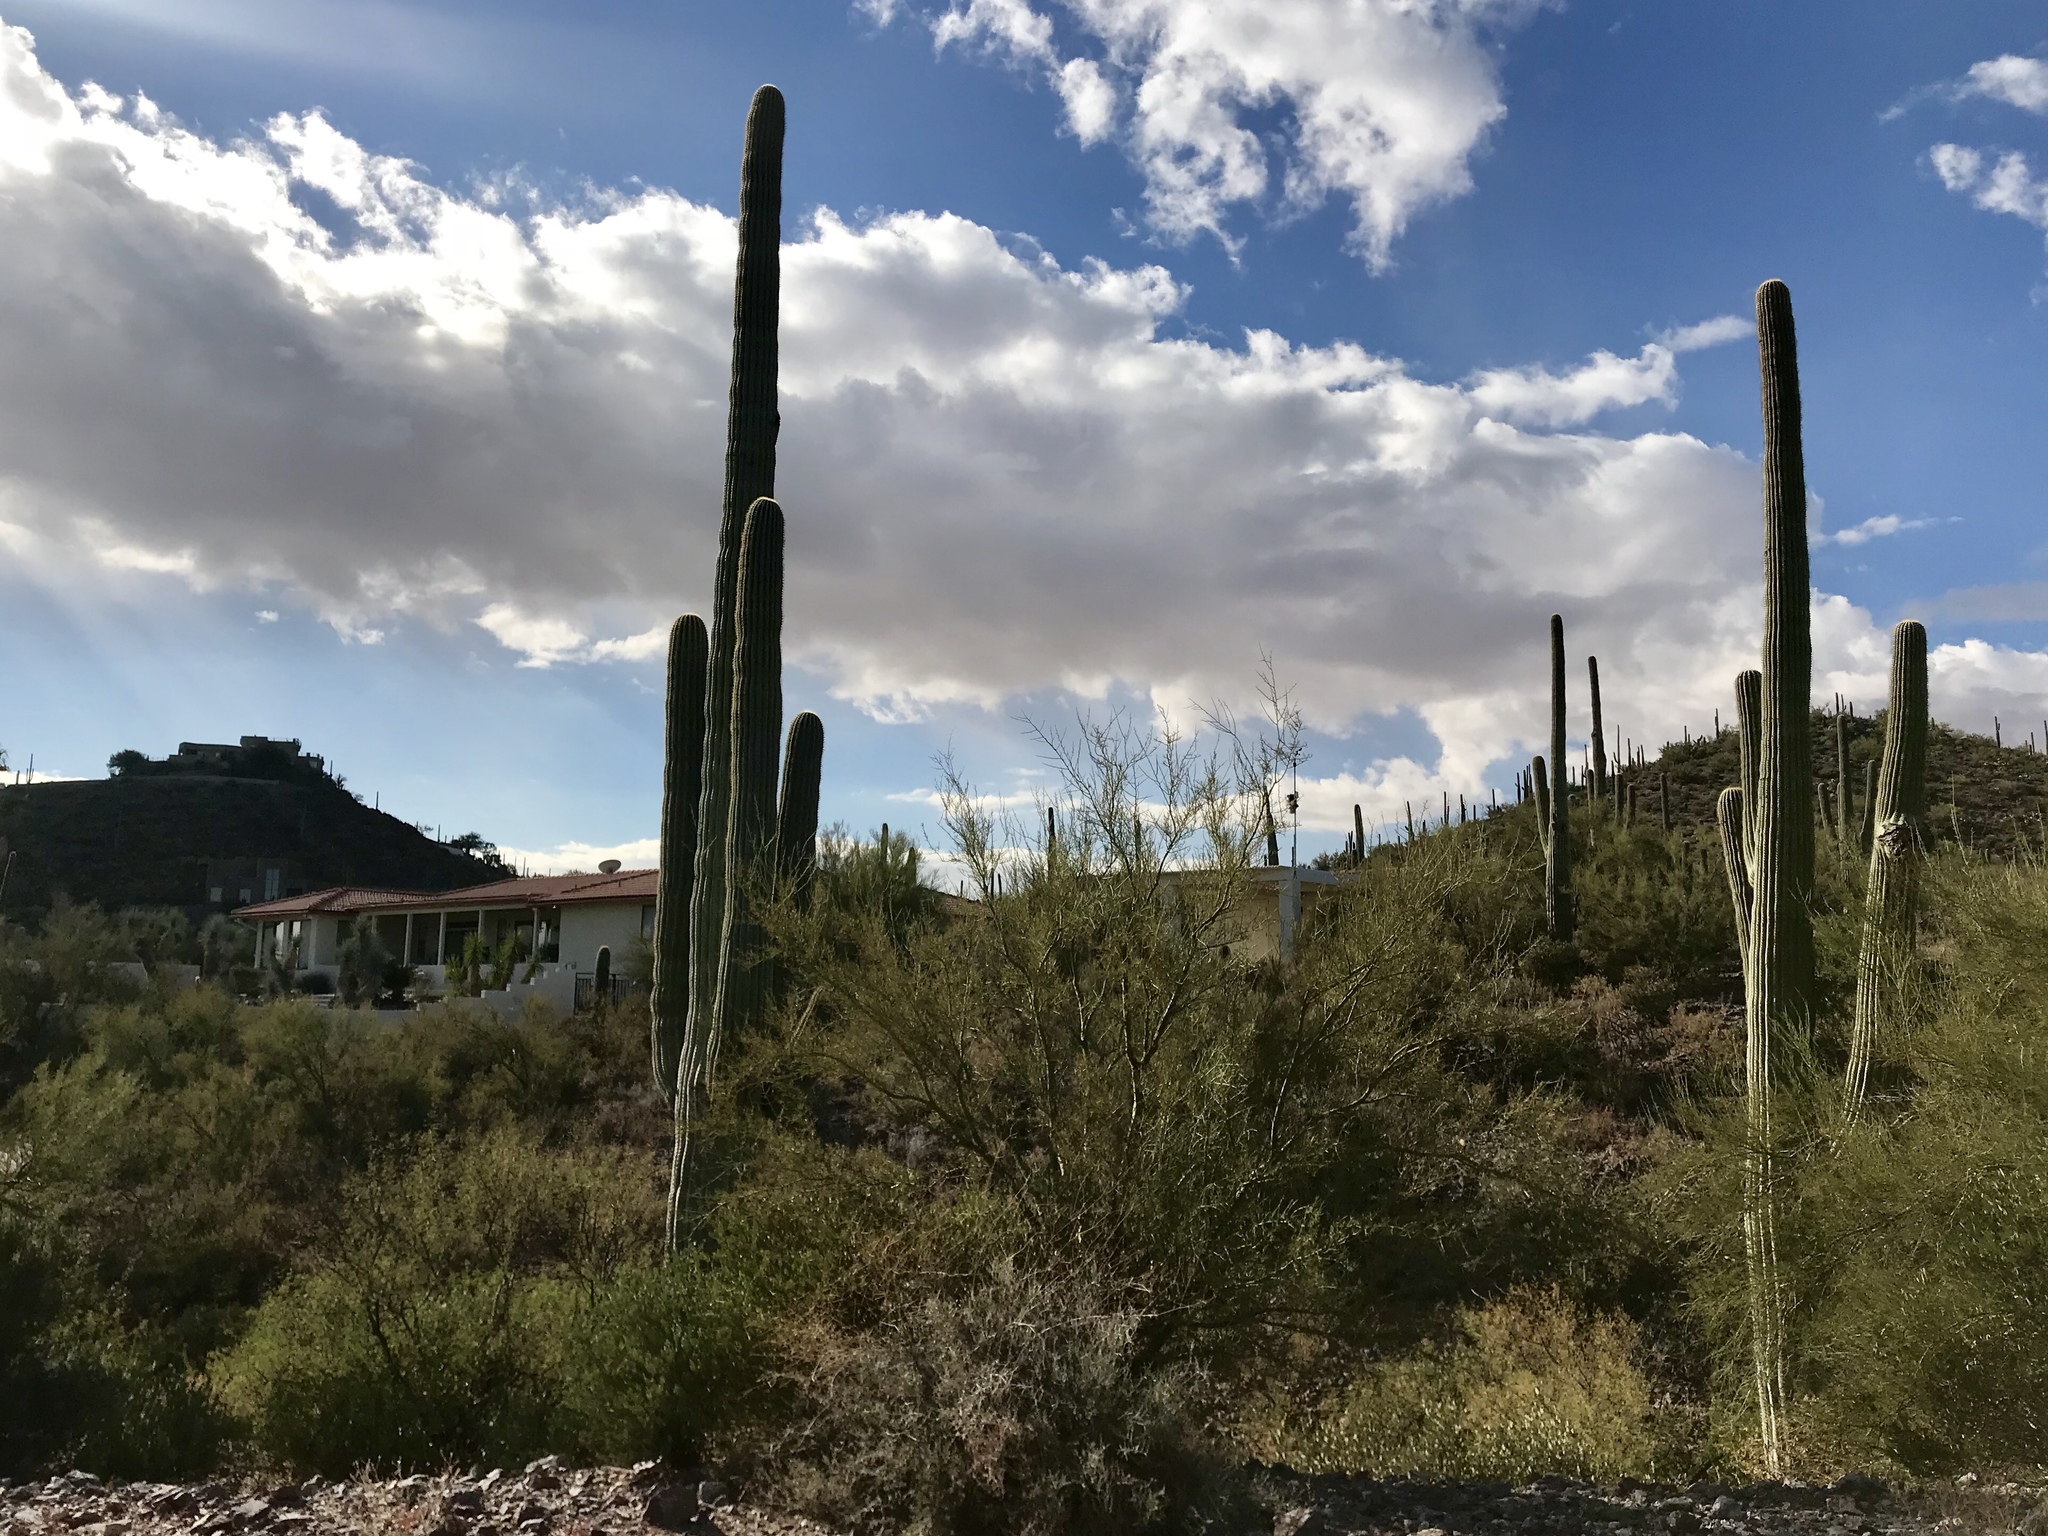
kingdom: Plantae
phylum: Tracheophyta
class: Magnoliopsida
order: Caryophyllales
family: Cactaceae
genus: Carnegiea
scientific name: Carnegiea gigantea
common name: Saguaro
